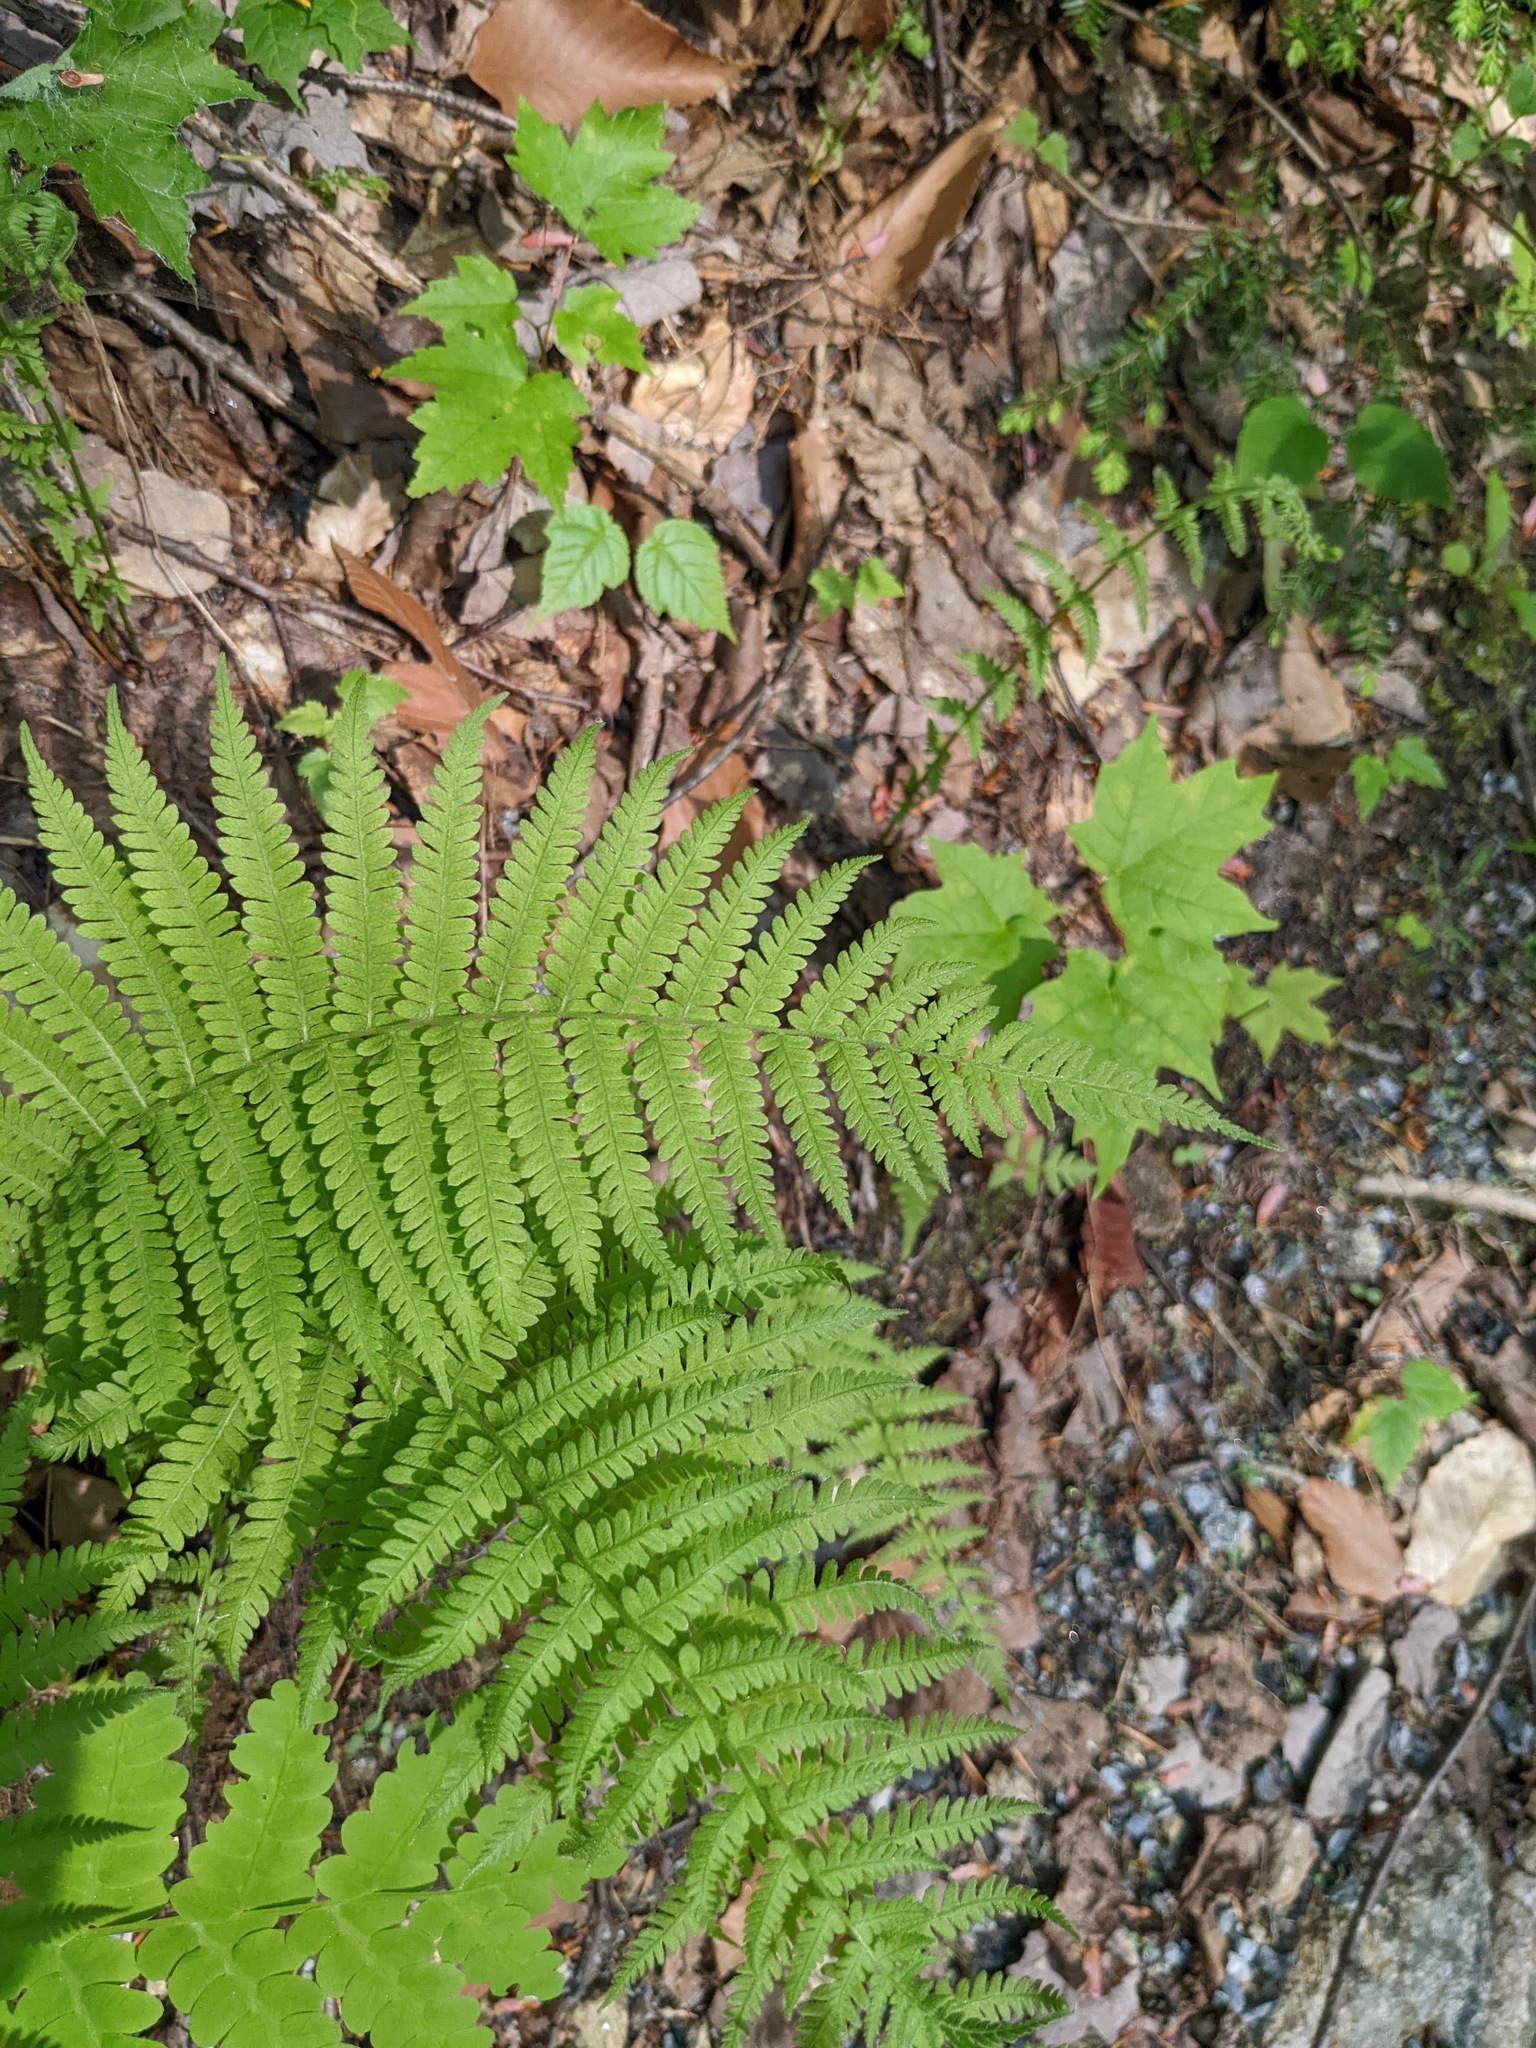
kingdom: Plantae
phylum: Tracheophyta
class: Polypodiopsida
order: Polypodiales
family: Thelypteridaceae
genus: Amauropelta
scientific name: Amauropelta noveboracensis
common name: New york fern
